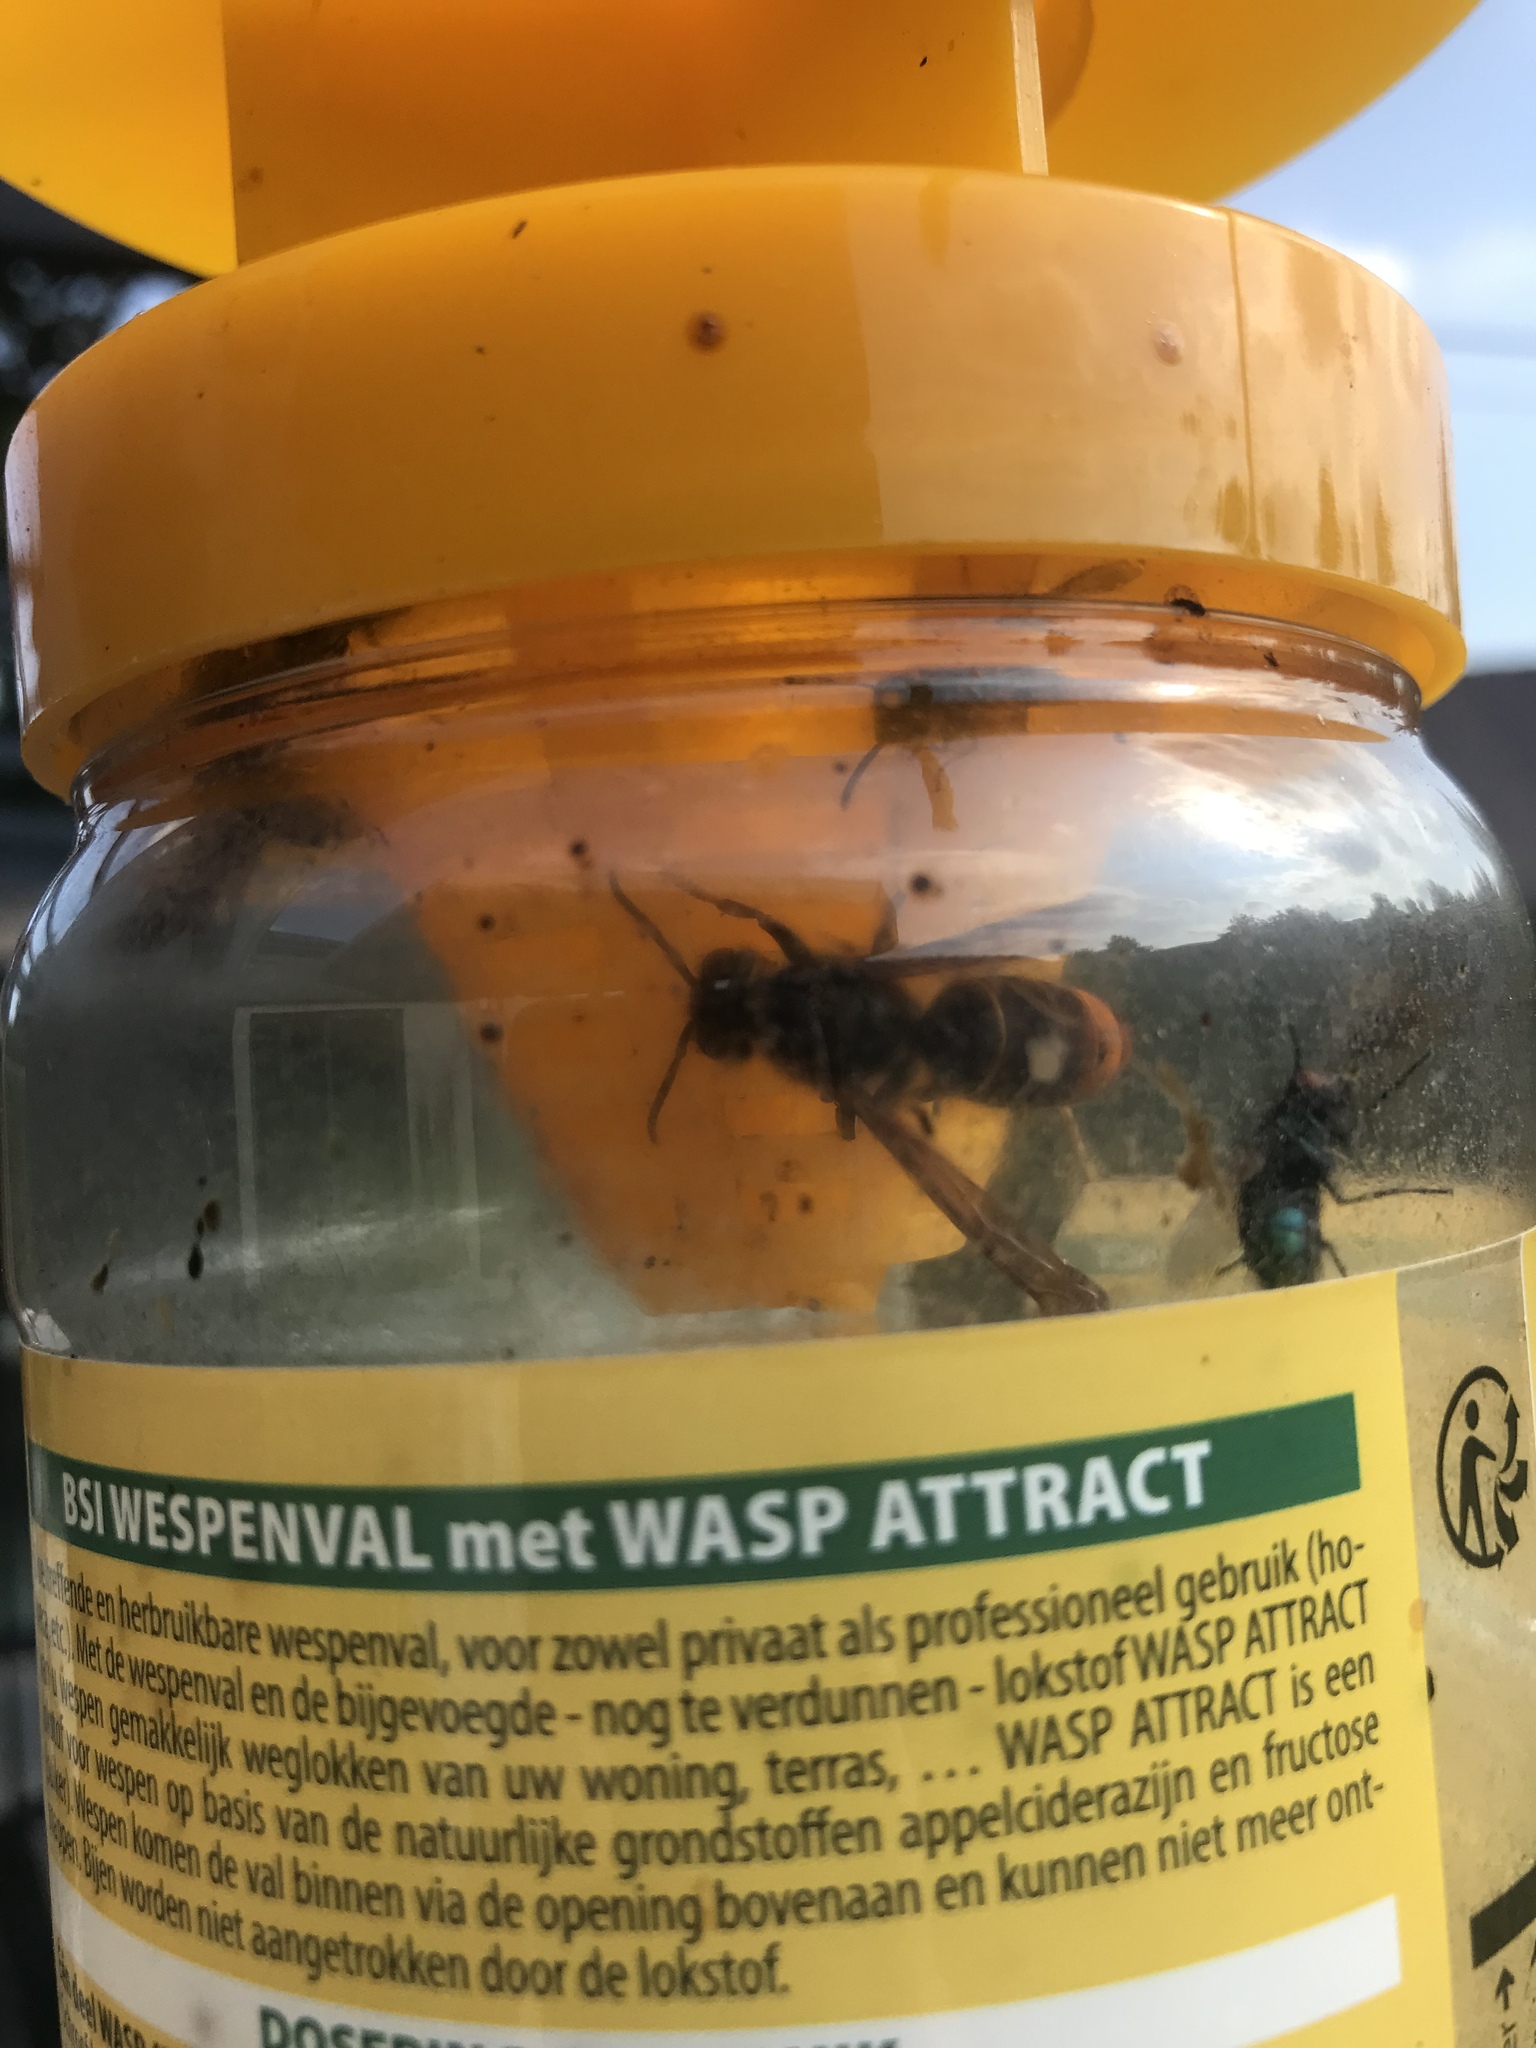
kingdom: Animalia
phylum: Arthropoda
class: Insecta
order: Hymenoptera
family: Vespidae
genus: Vespa
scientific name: Vespa velutina
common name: Asian hornet
